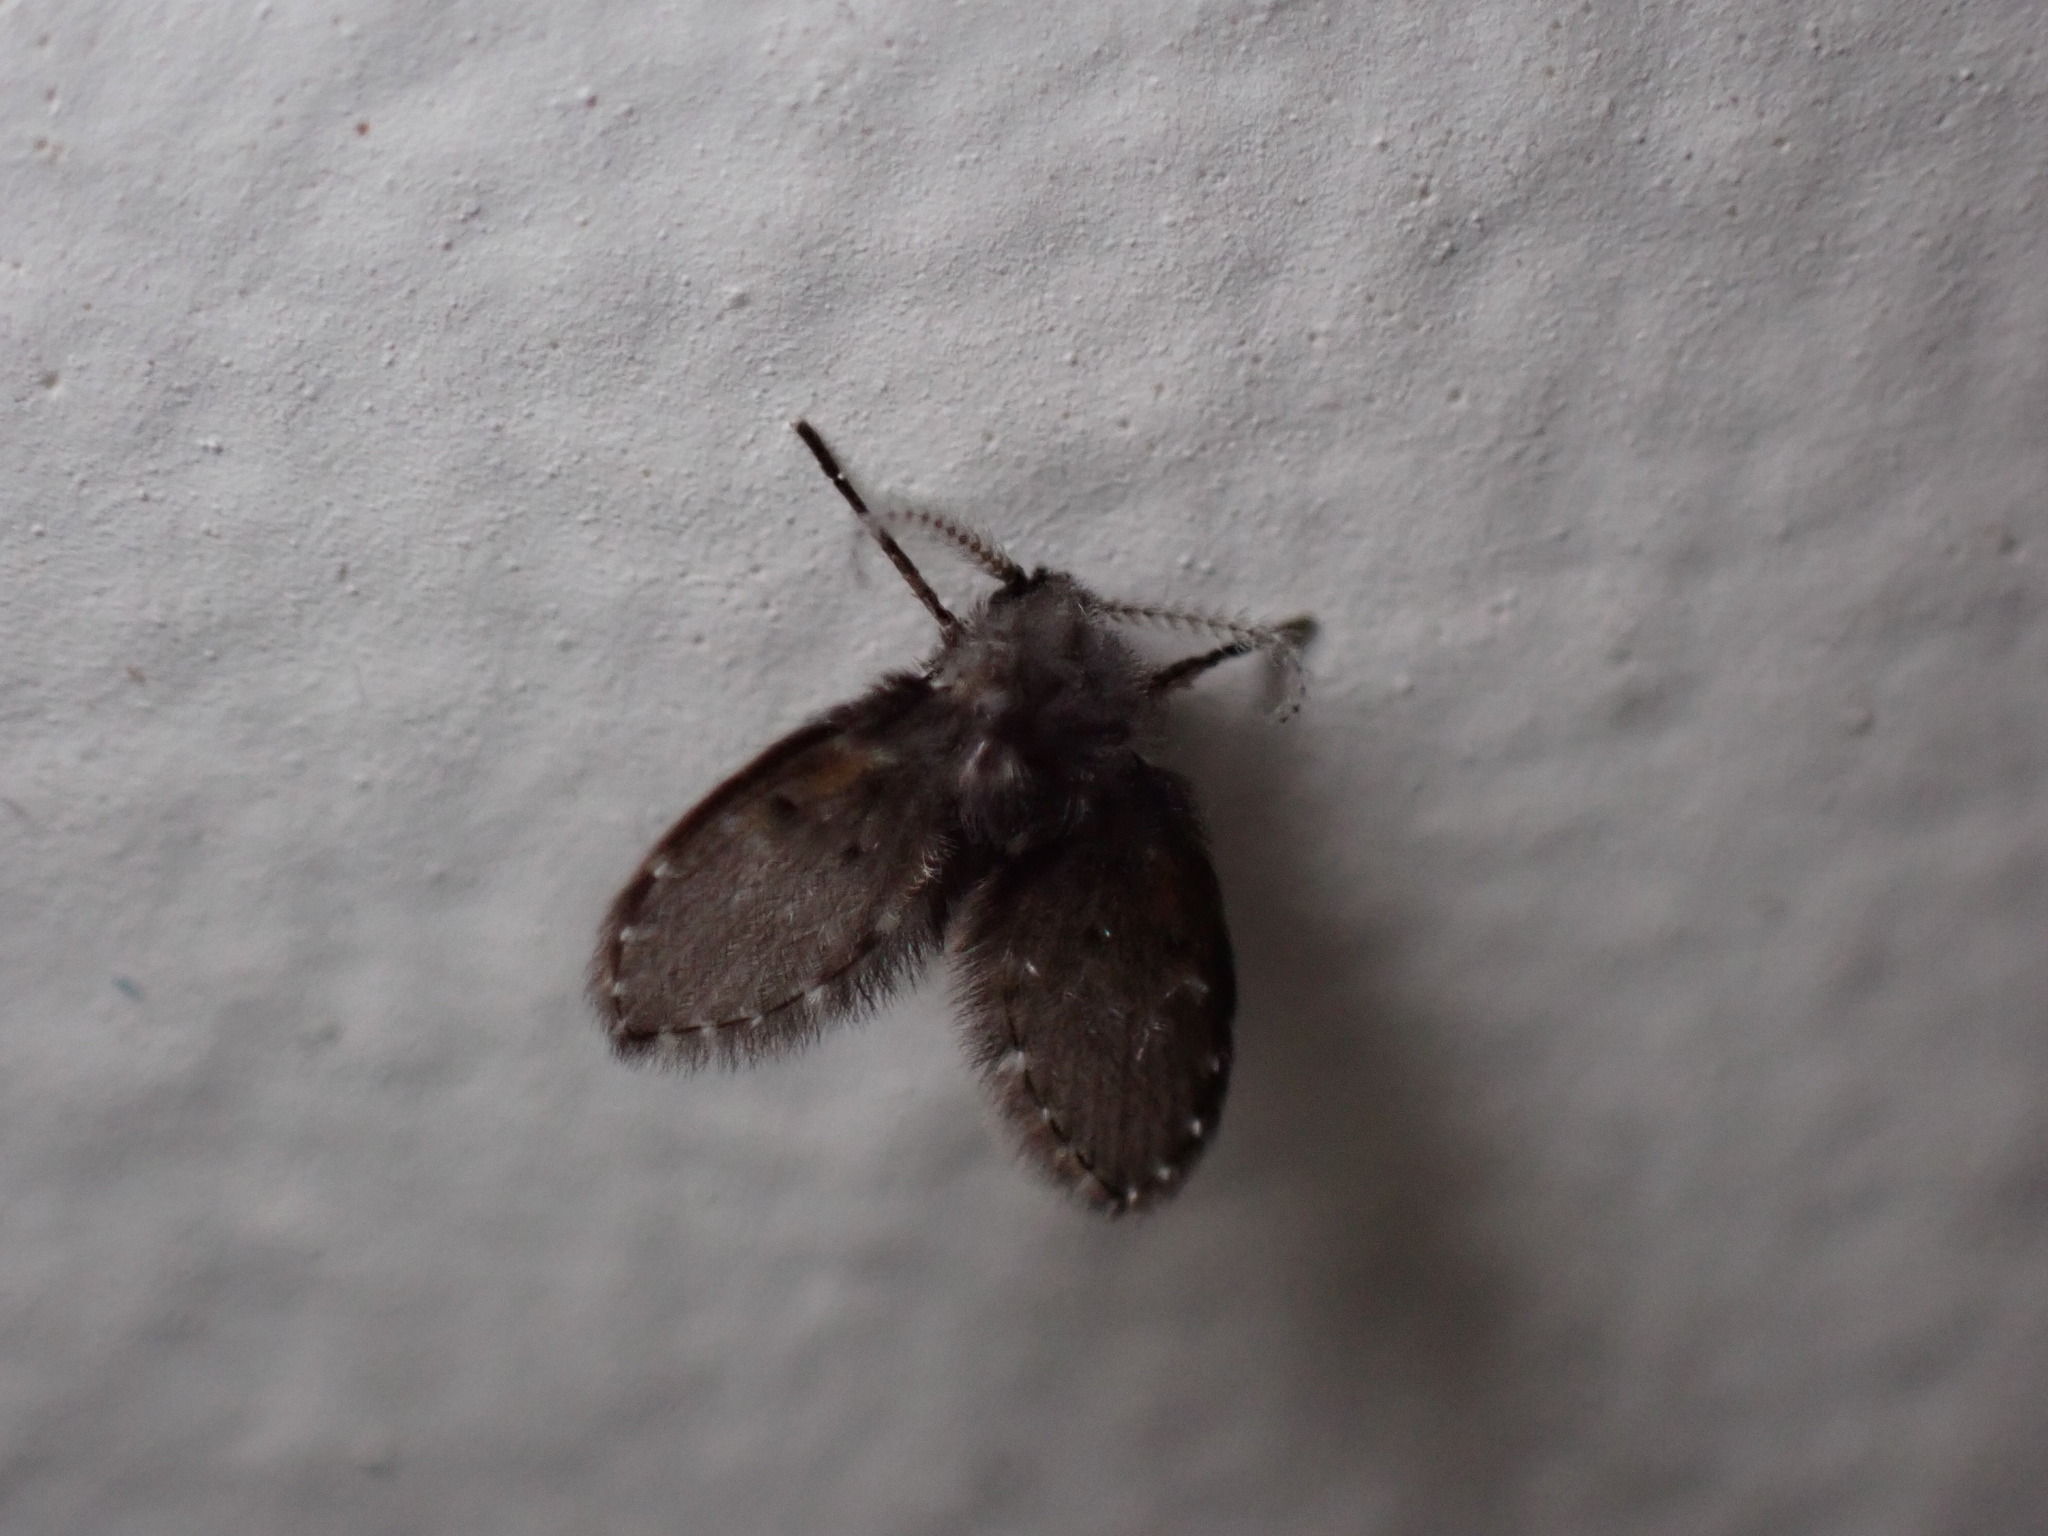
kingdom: Animalia
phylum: Arthropoda
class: Insecta
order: Diptera
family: Psychodidae
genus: Clogmia
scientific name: Clogmia albipunctatus
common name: White-spotted moth fly
